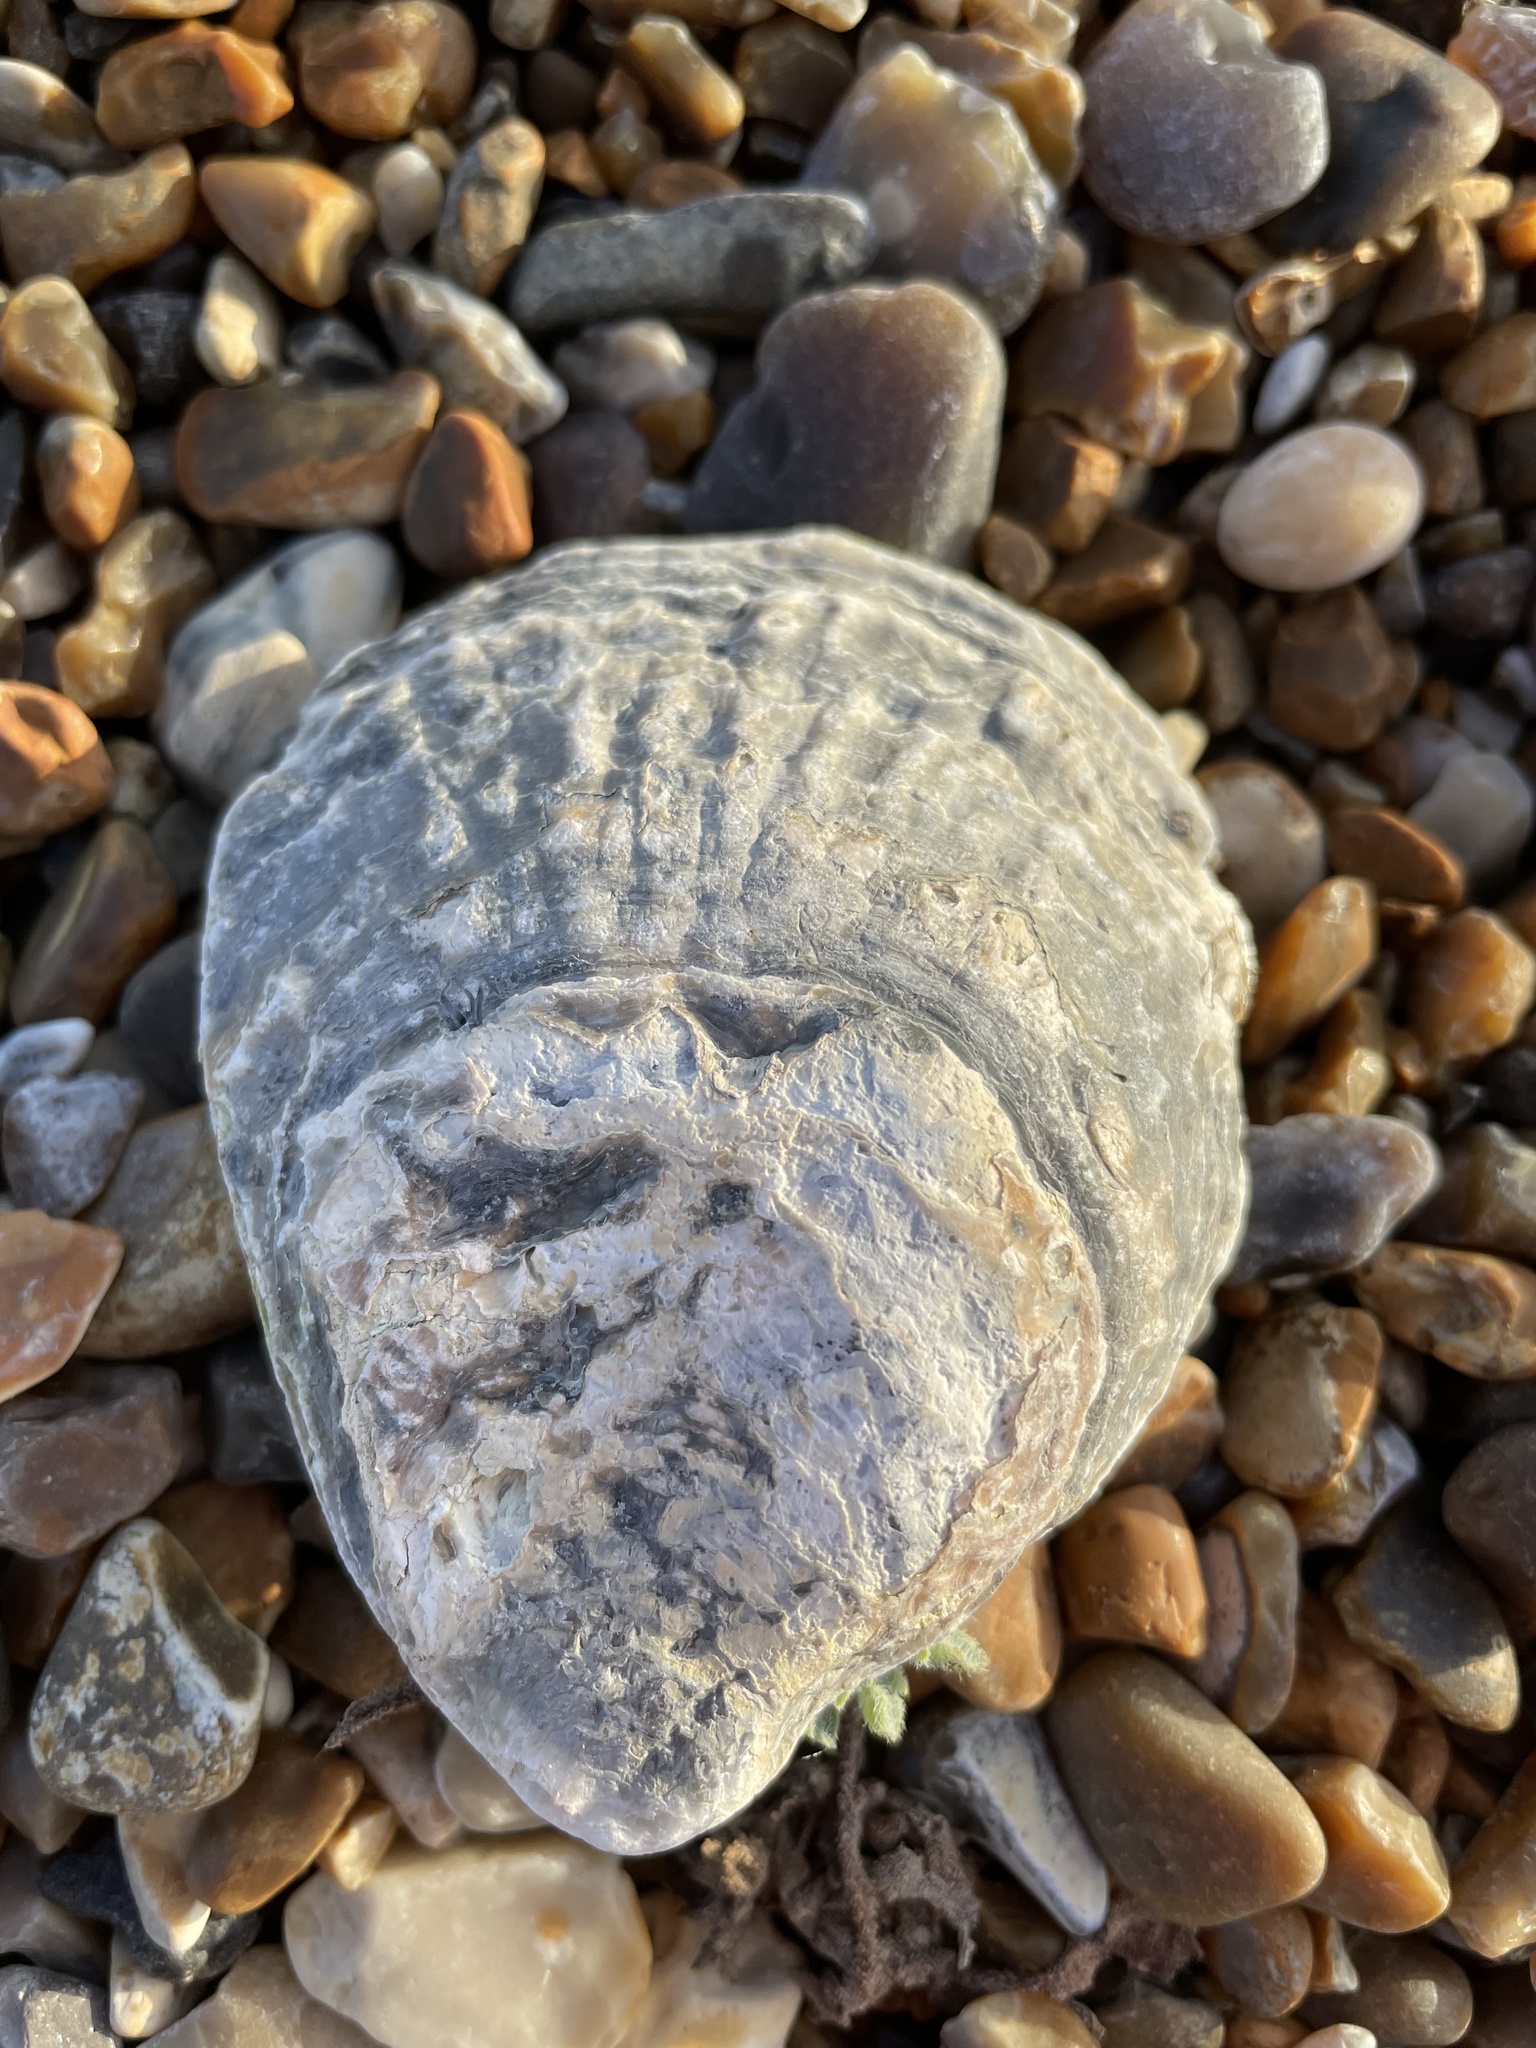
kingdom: Animalia
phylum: Mollusca
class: Bivalvia
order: Ostreida
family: Ostreidae
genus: Ostrea
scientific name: Ostrea edulis
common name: Flat oyster
